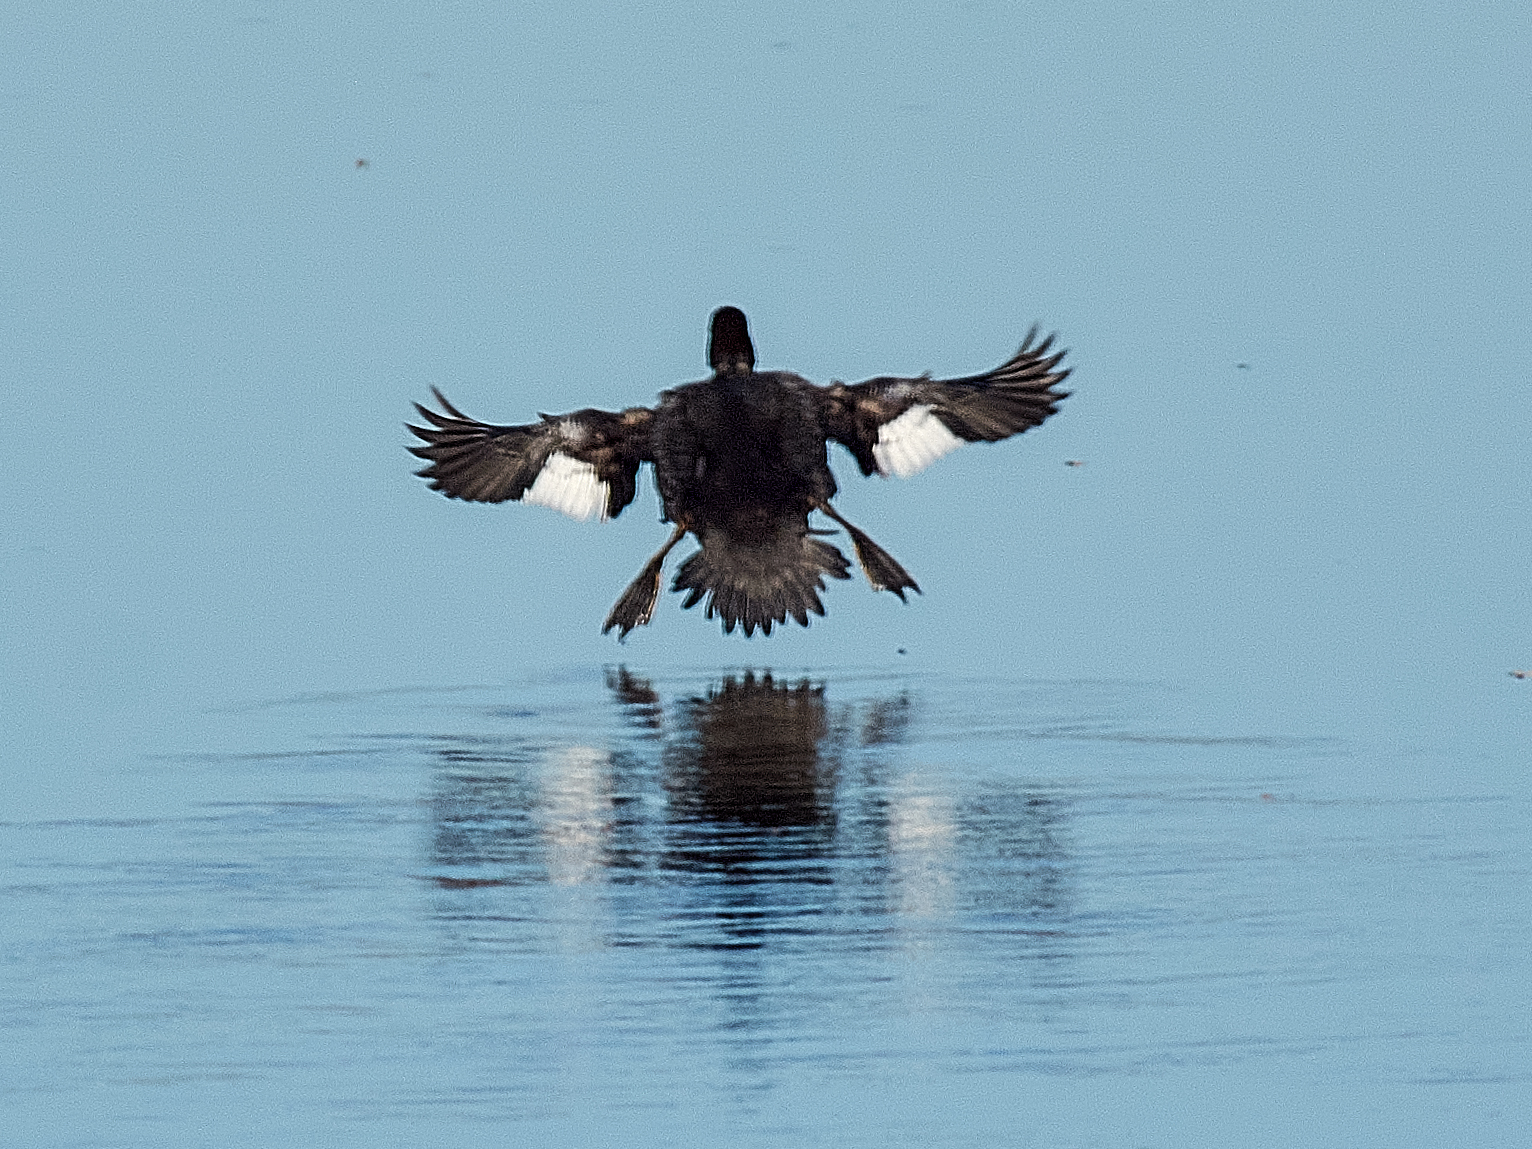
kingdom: Animalia
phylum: Chordata
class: Aves
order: Anseriformes
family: Anatidae
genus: Bucephala
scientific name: Bucephala clangula
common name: Common goldeneye
